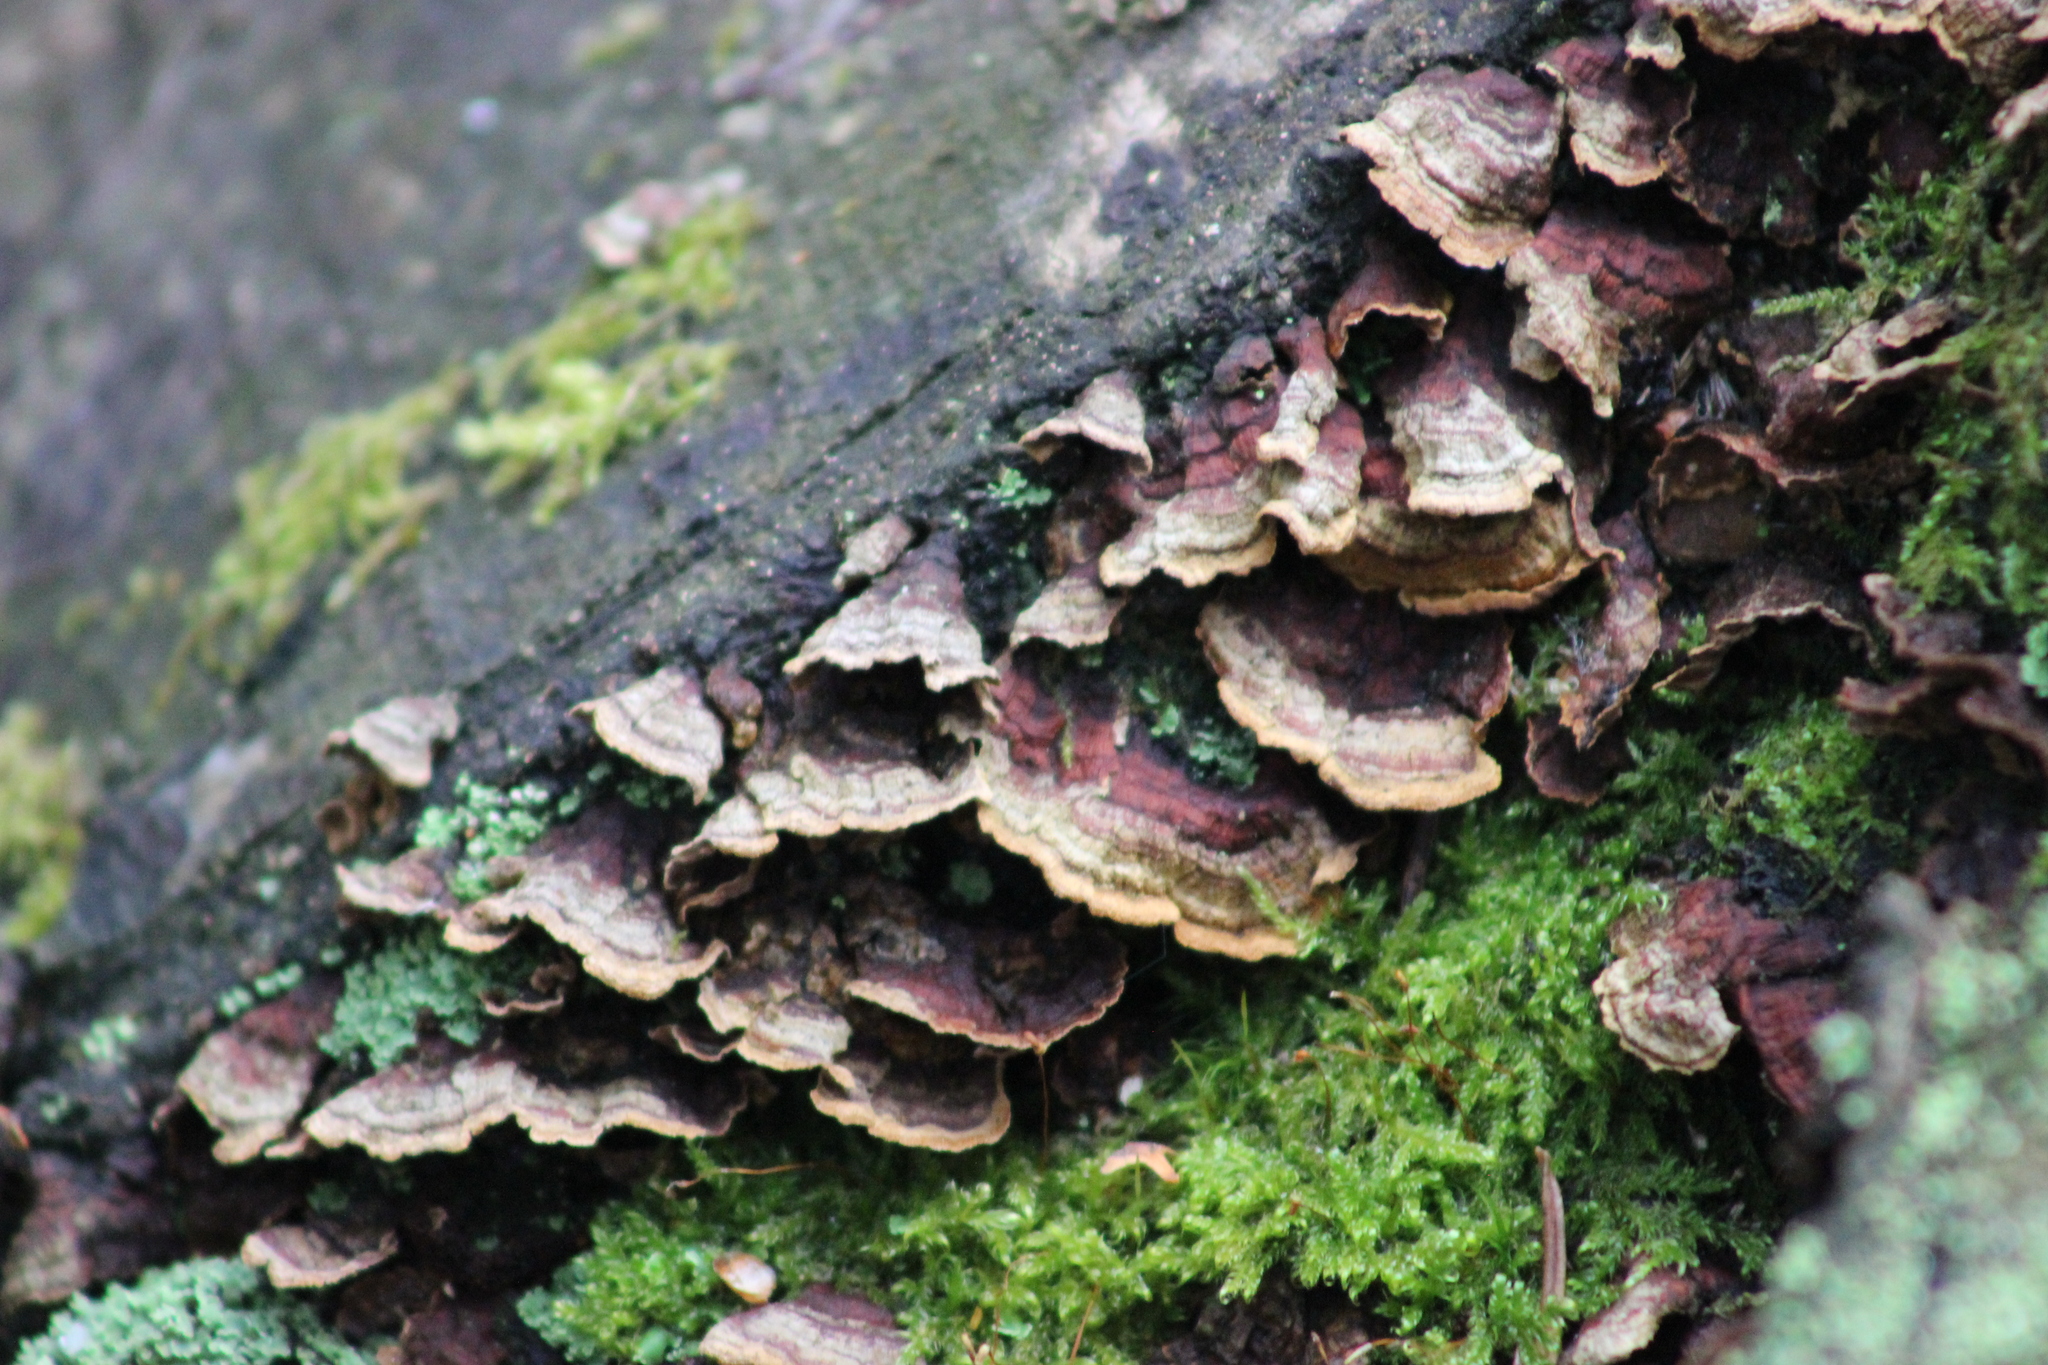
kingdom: Fungi
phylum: Basidiomycota
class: Agaricomycetes
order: Hymenochaetales
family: Hymenochaetaceae
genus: Hydnoporia
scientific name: Hydnoporia tabacina
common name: Willow glue
